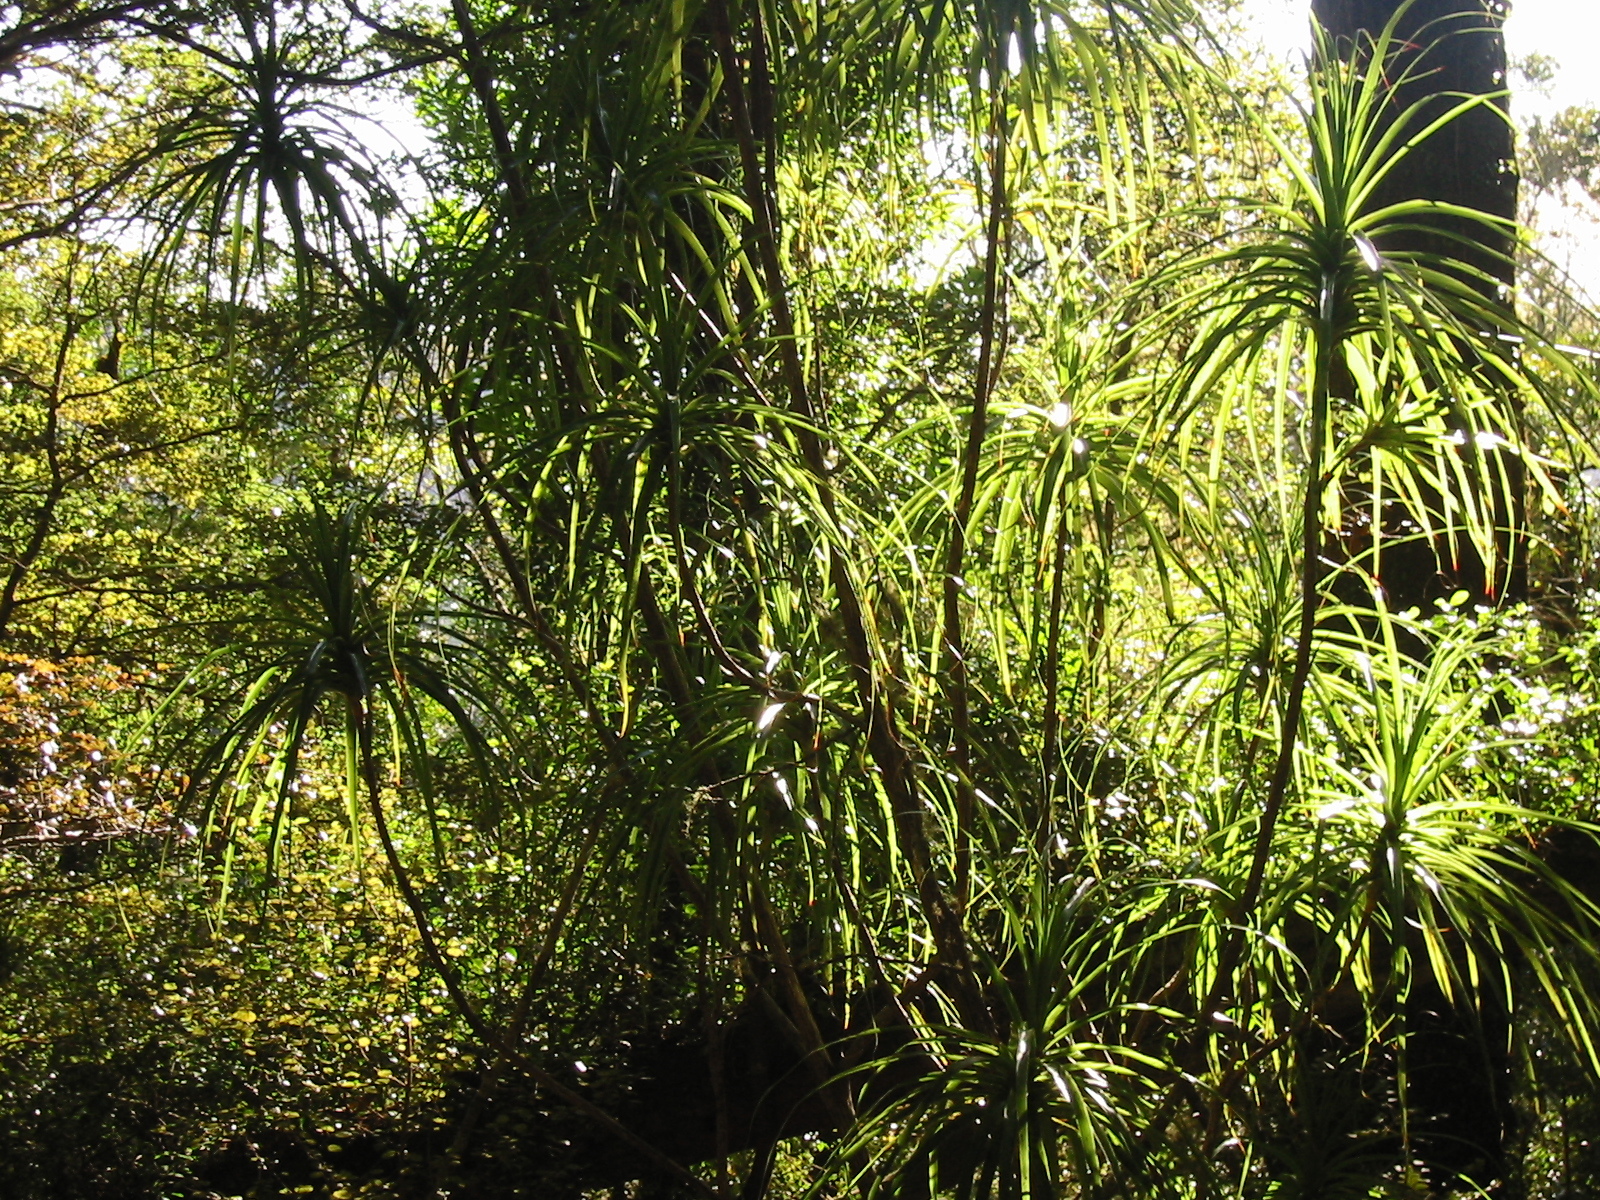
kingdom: Plantae
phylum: Tracheophyta
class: Magnoliopsida
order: Ericales
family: Ericaceae
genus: Dracophyllum
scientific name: Dracophyllum latifolium
